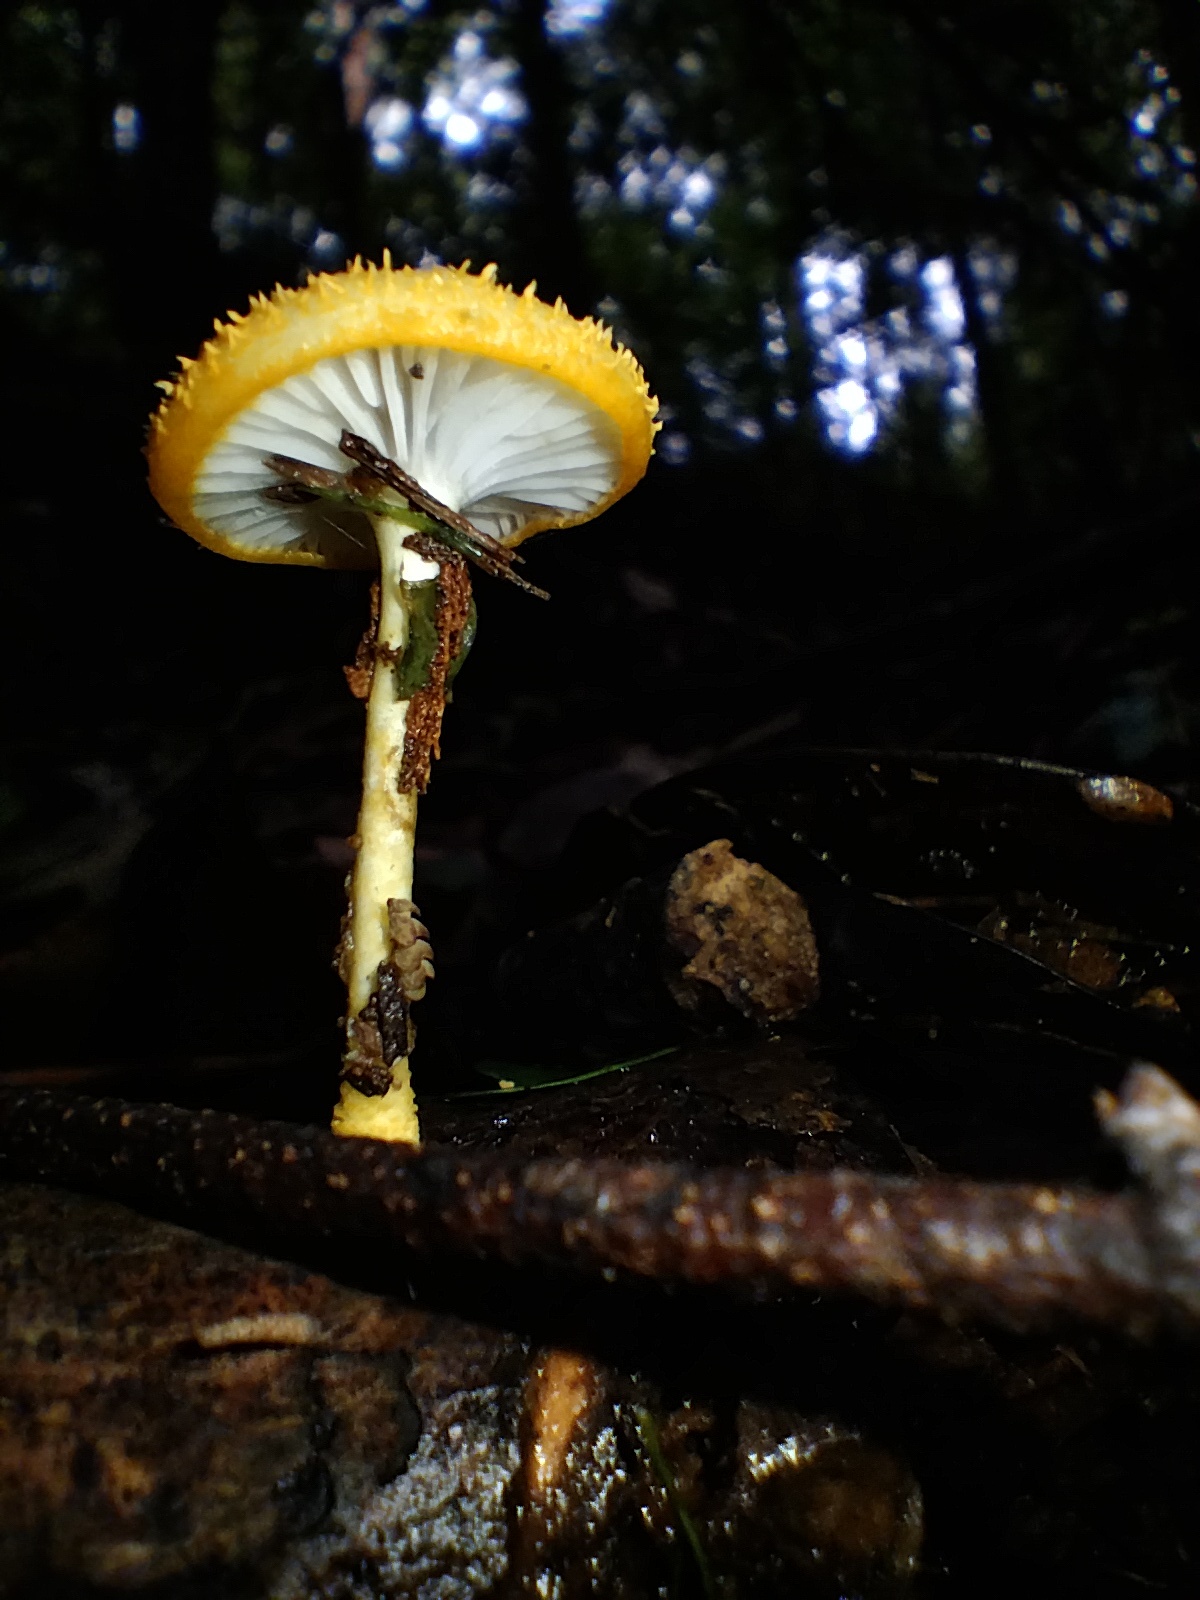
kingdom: Fungi
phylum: Basidiomycota
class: Agaricomycetes
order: Agaricales
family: Physalacriaceae
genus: Cyptotrama
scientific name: Cyptotrama asprata
